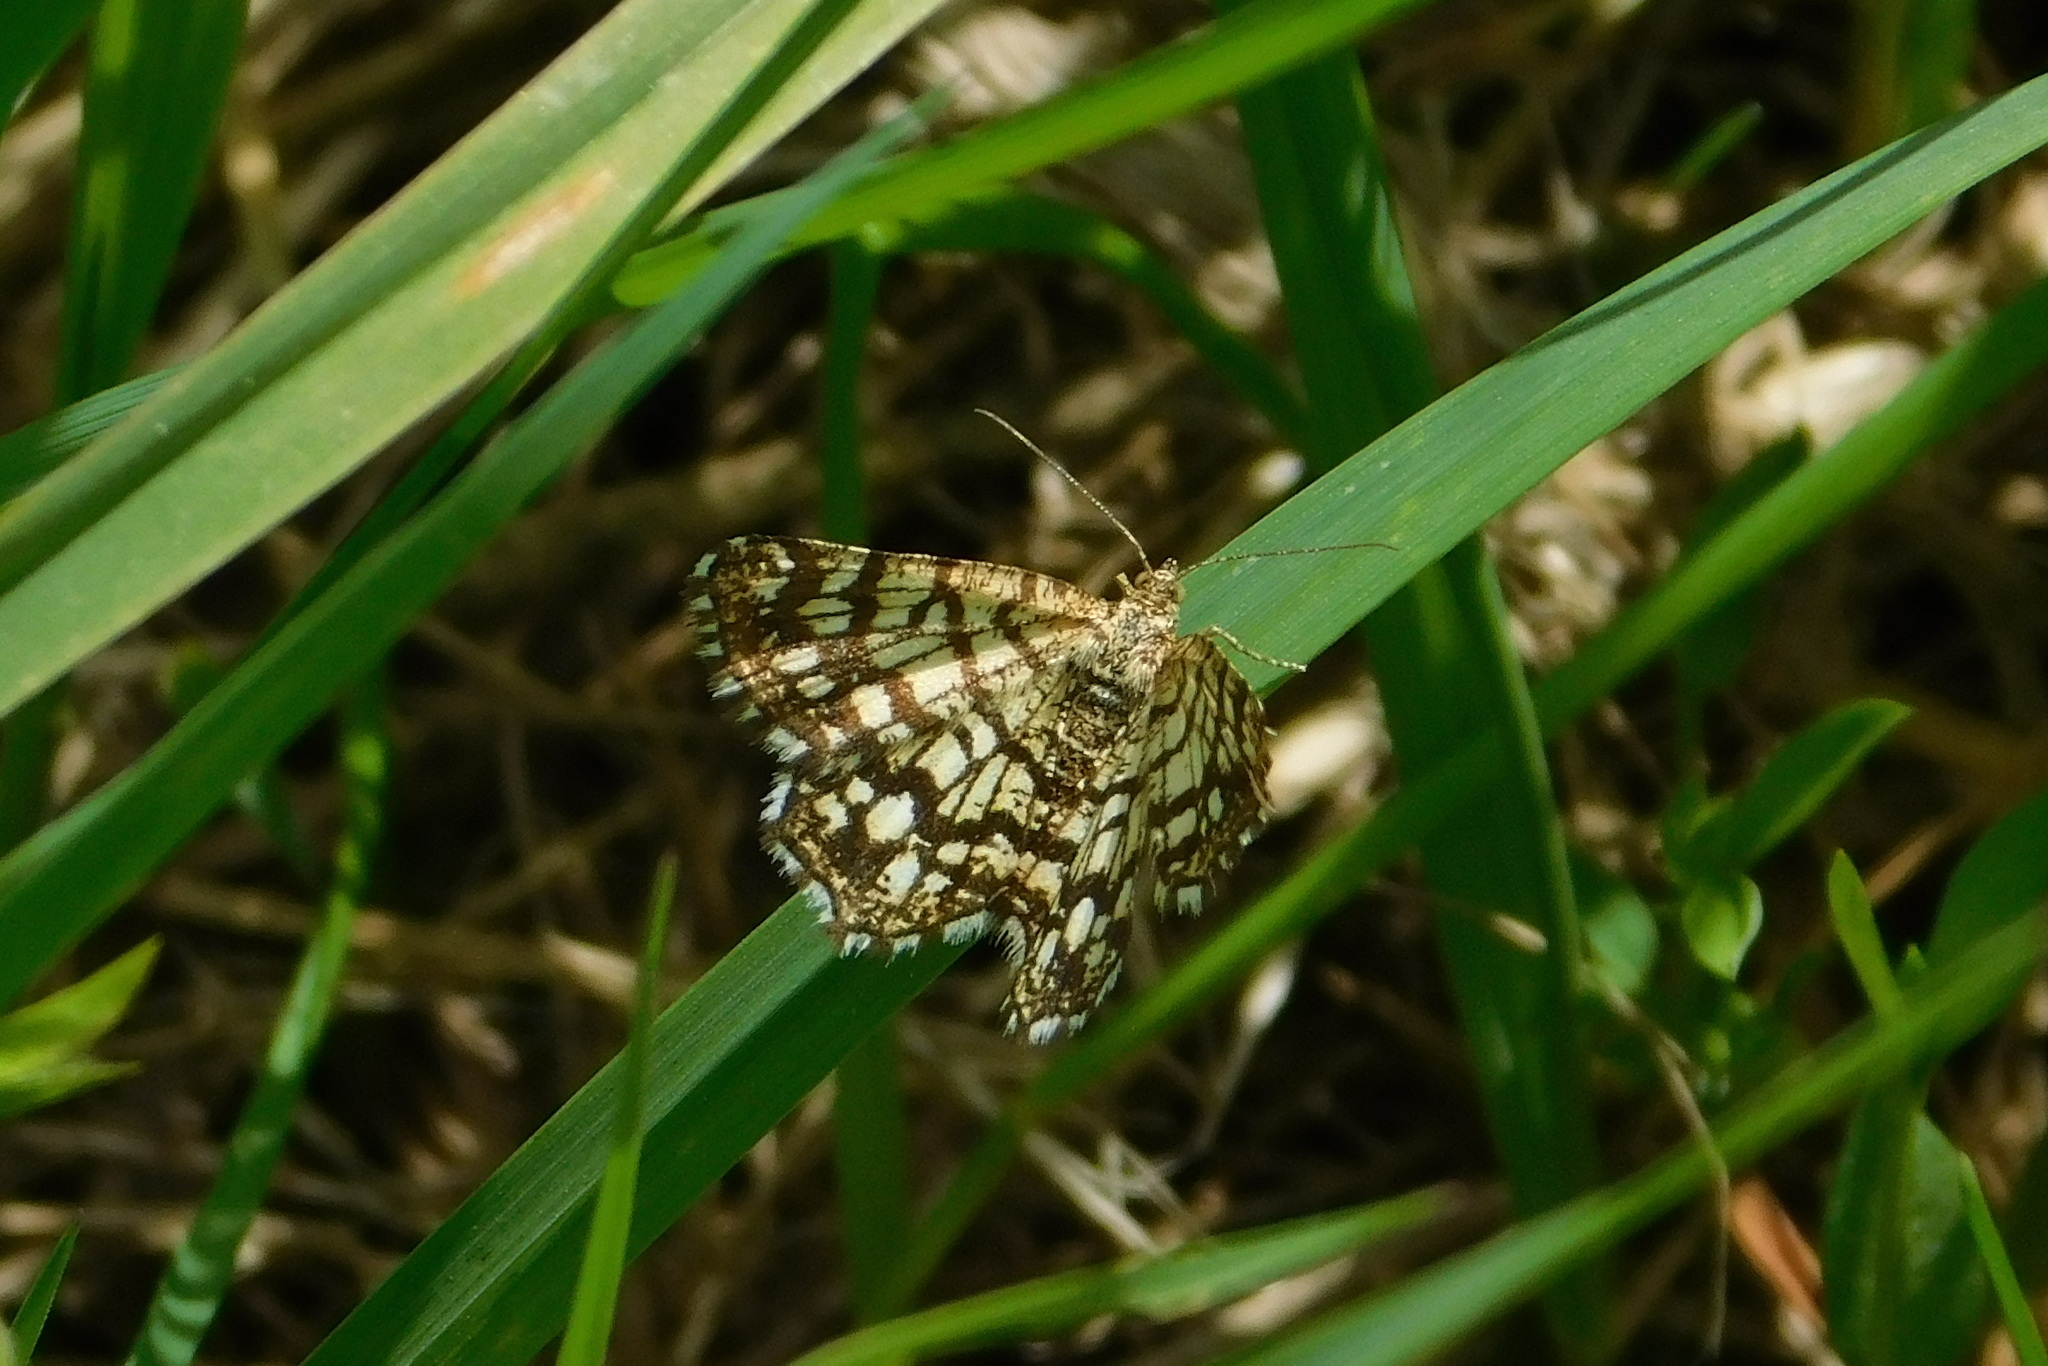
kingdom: Animalia
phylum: Arthropoda
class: Insecta
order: Lepidoptera
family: Geometridae
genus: Chiasmia
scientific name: Chiasmia clathrata
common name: Latticed heath
